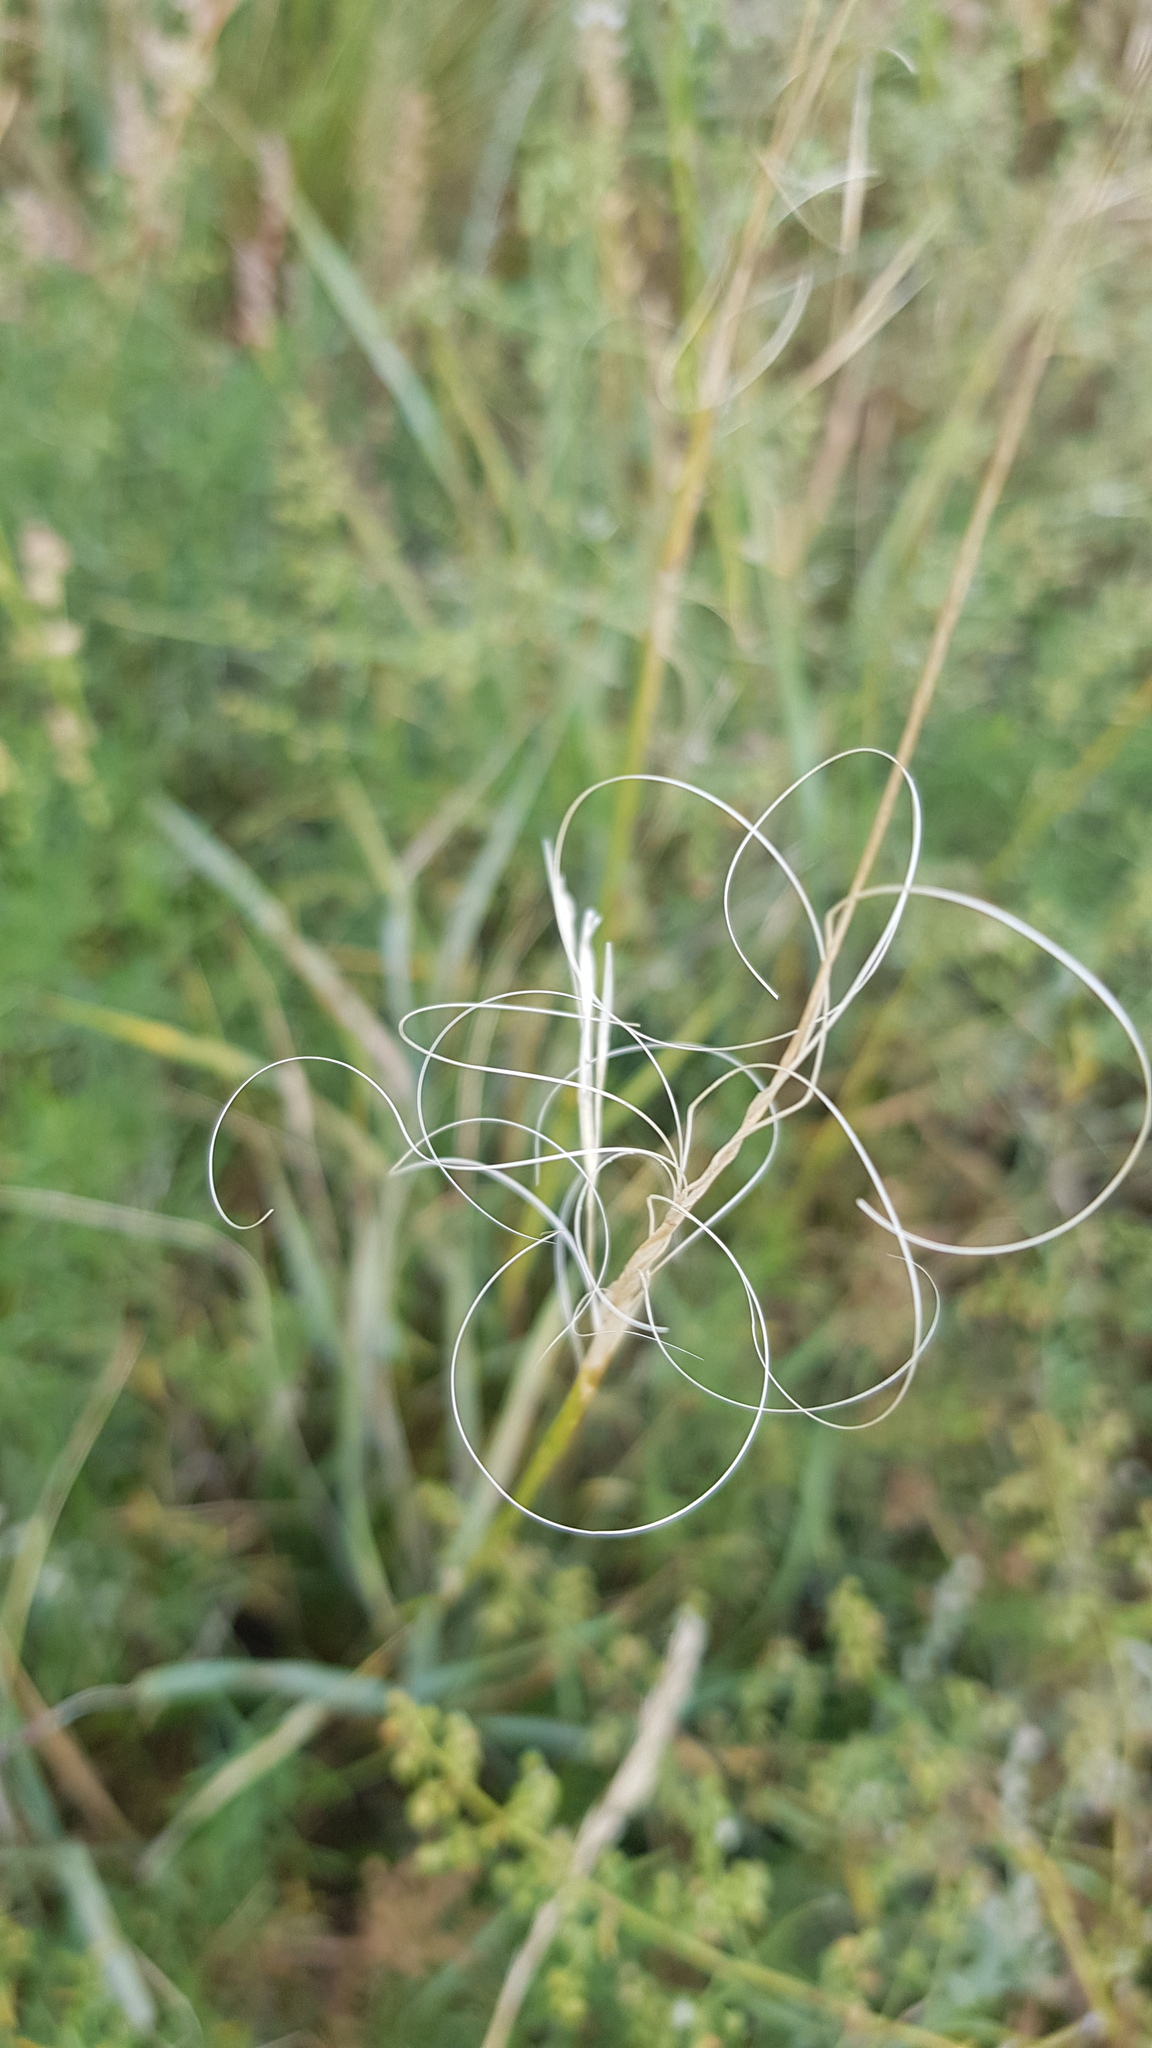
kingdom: Plantae
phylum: Tracheophyta
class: Liliopsida
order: Poales
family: Poaceae
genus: Stipa
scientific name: Stipa krylovii
